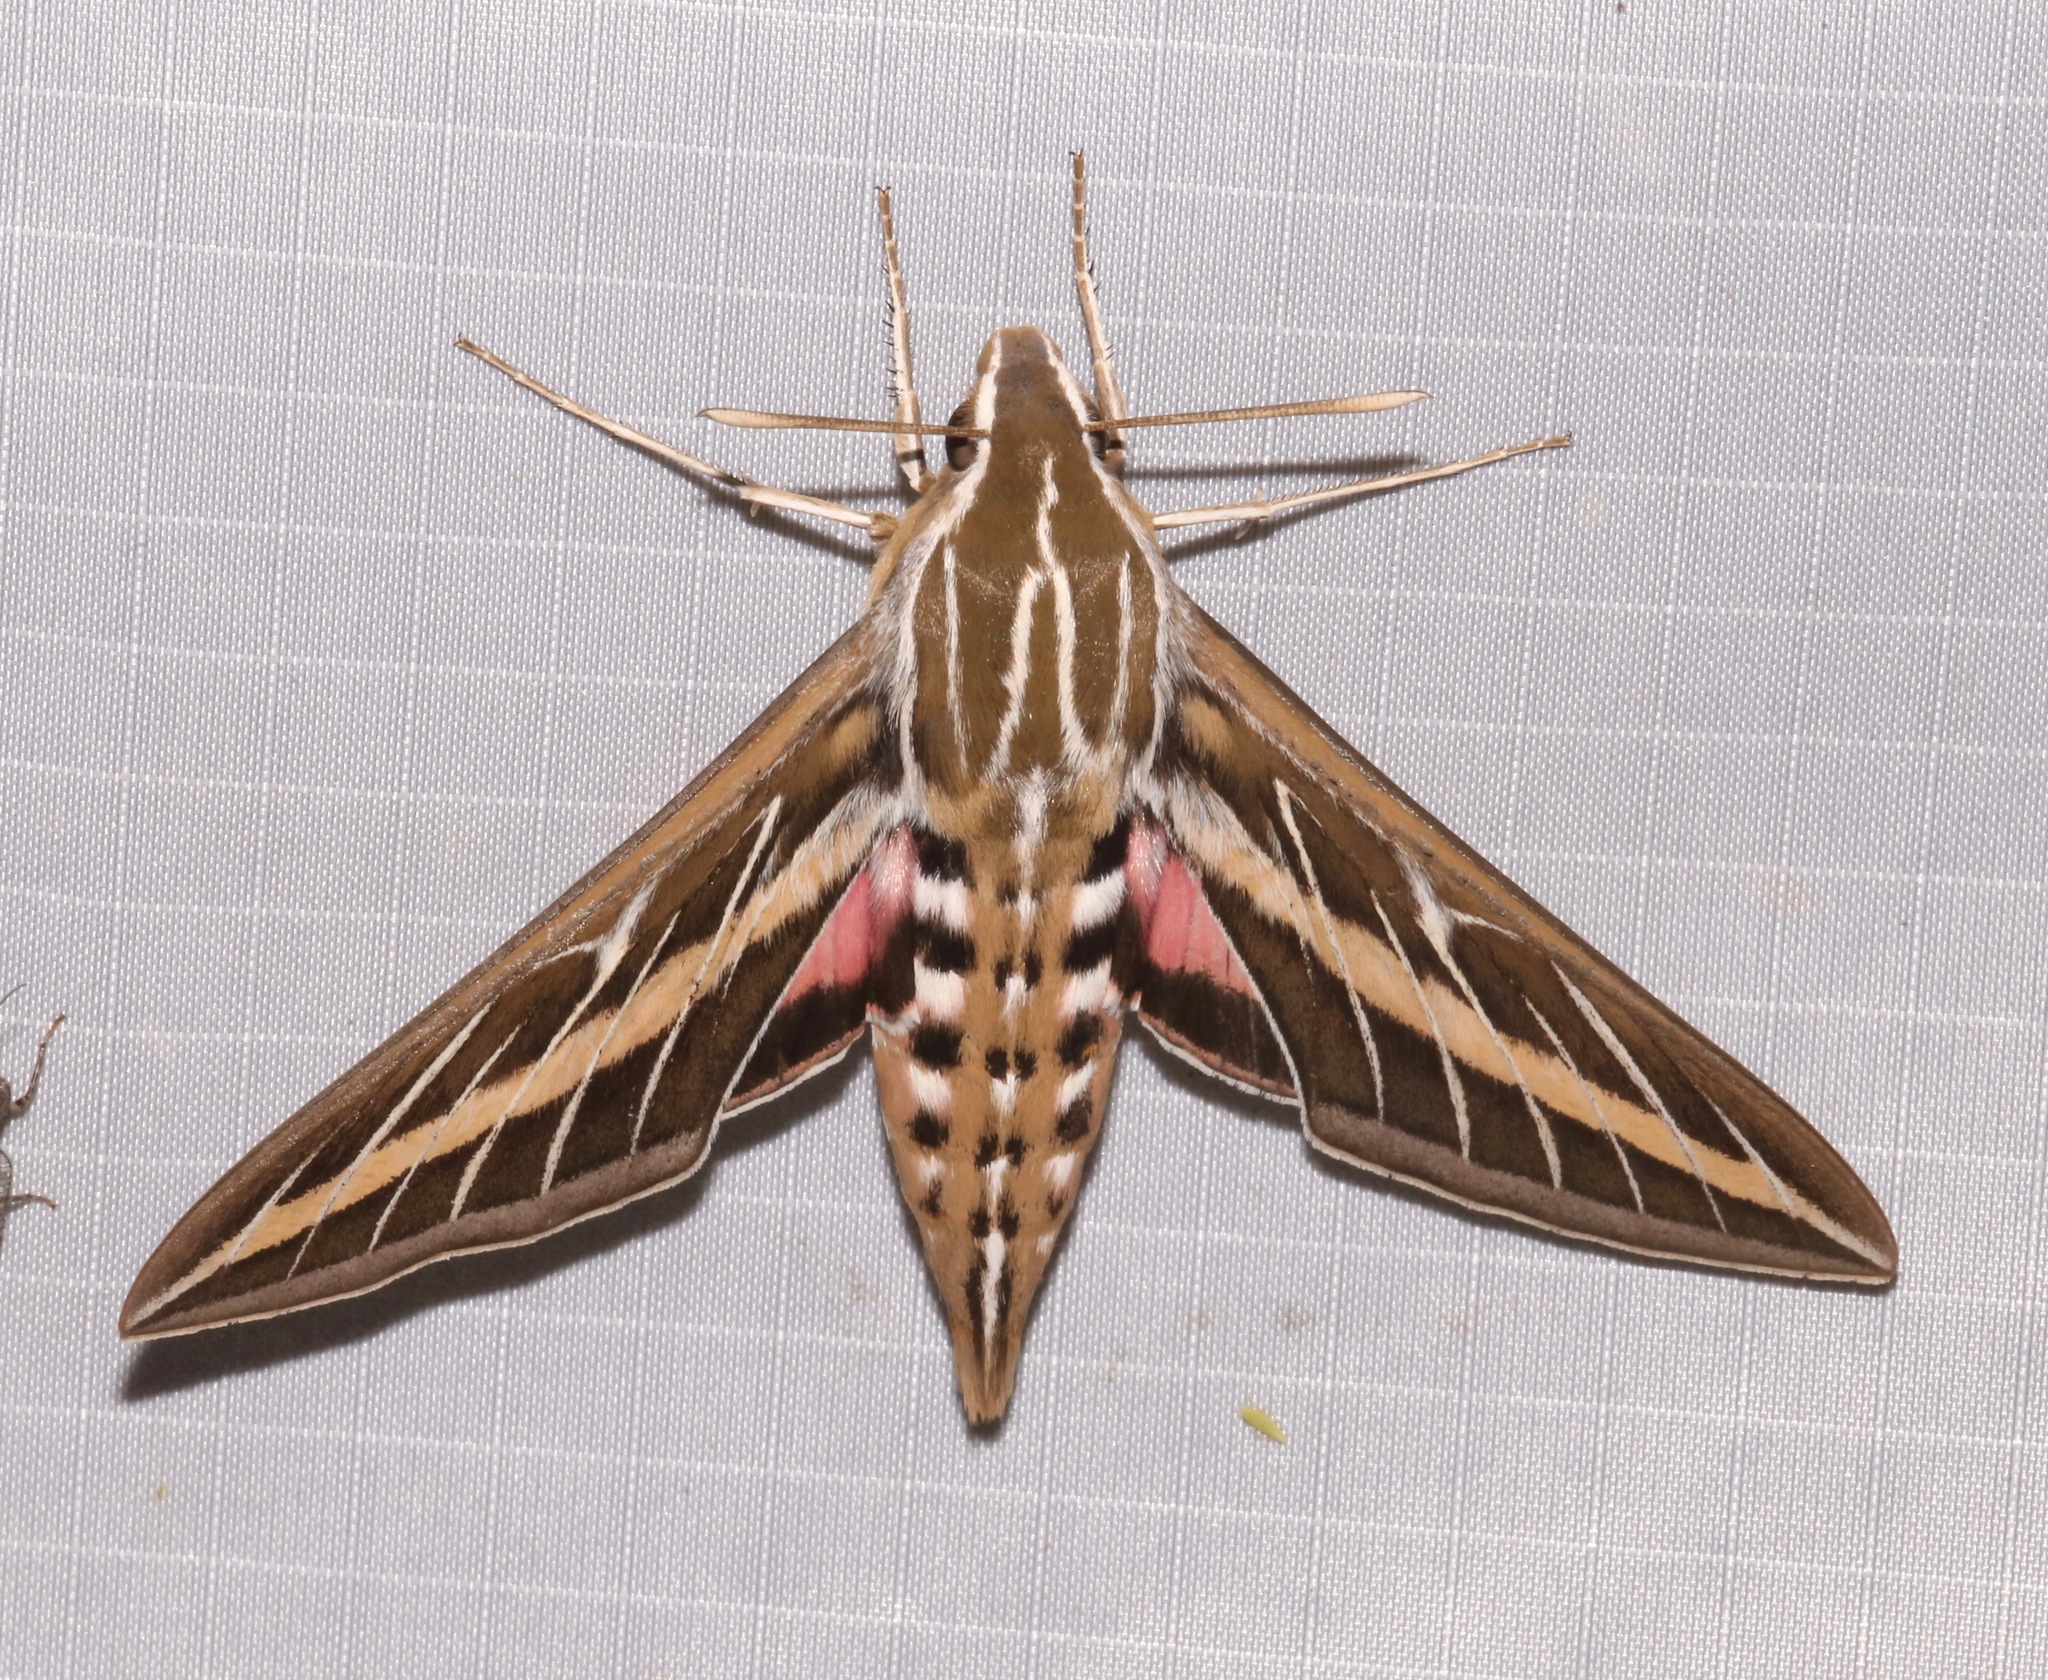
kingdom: Animalia
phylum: Arthropoda
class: Insecta
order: Lepidoptera
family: Sphingidae
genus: Hyles
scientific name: Hyles lineata
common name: White-lined sphinx
